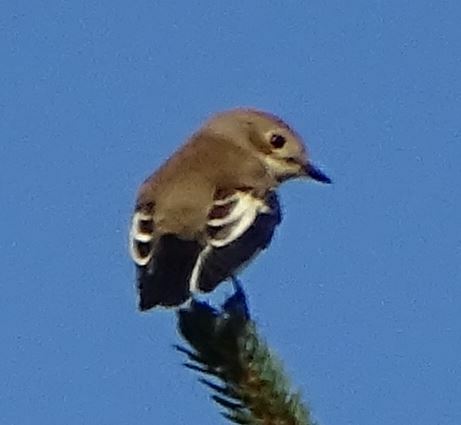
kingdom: Animalia
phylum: Chordata
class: Aves
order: Passeriformes
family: Muscicapidae
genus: Ficedula
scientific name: Ficedula hypoleuca
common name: European pied flycatcher
